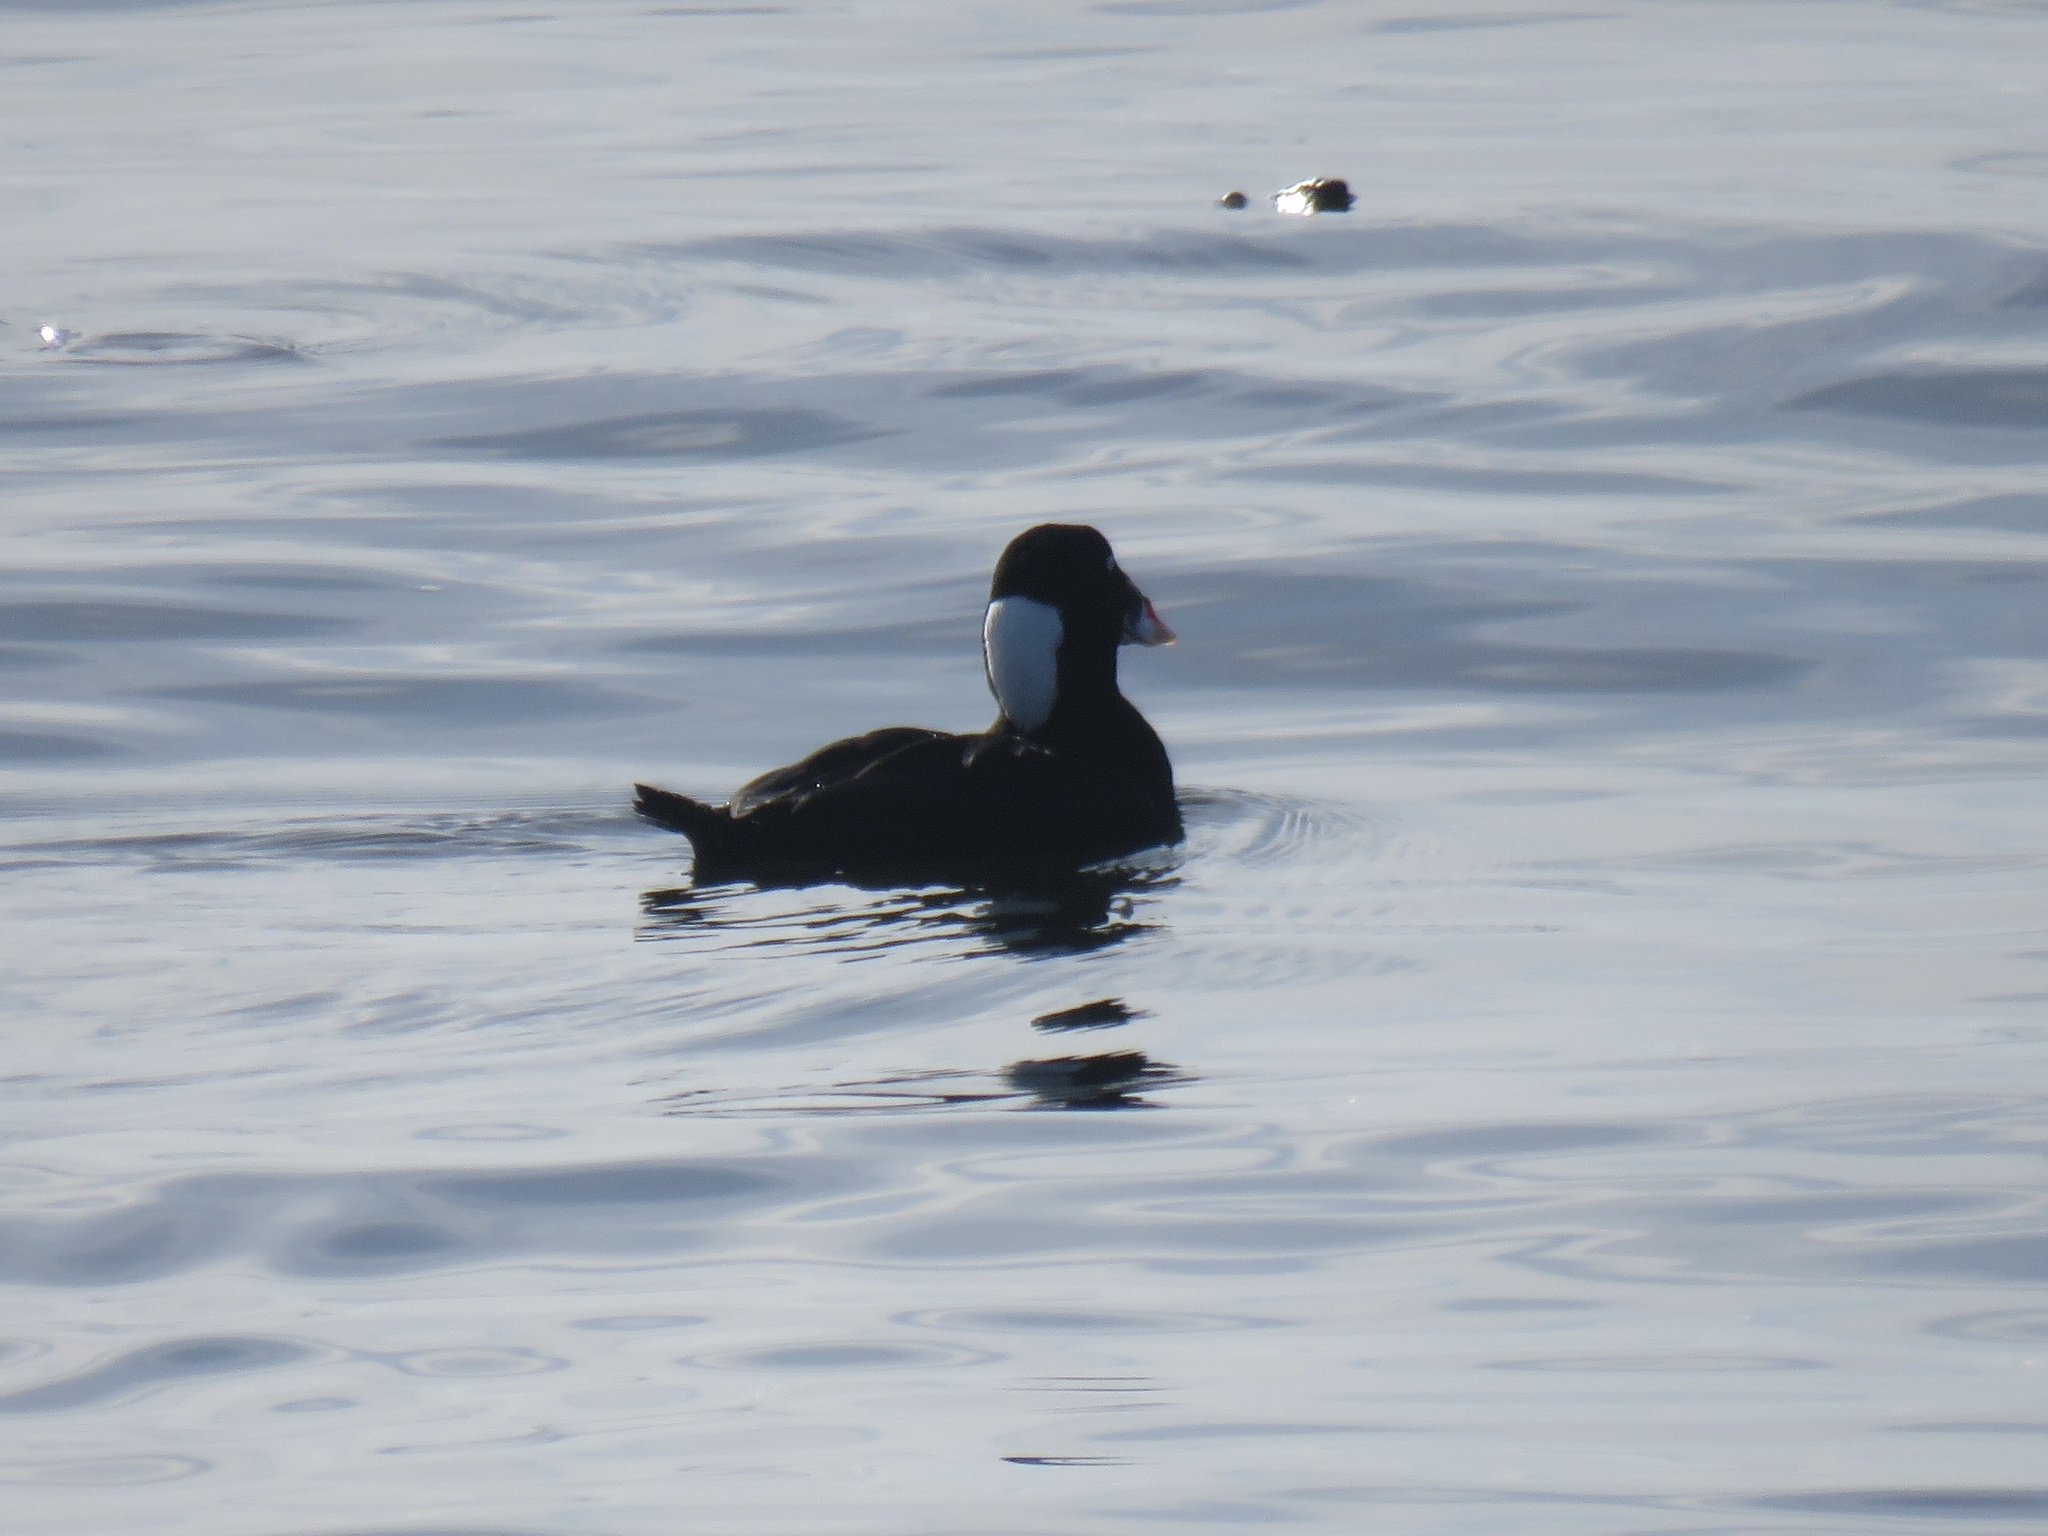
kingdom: Animalia
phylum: Chordata
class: Aves
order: Anseriformes
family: Anatidae
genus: Melanitta
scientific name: Melanitta perspicillata
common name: Surf scoter
